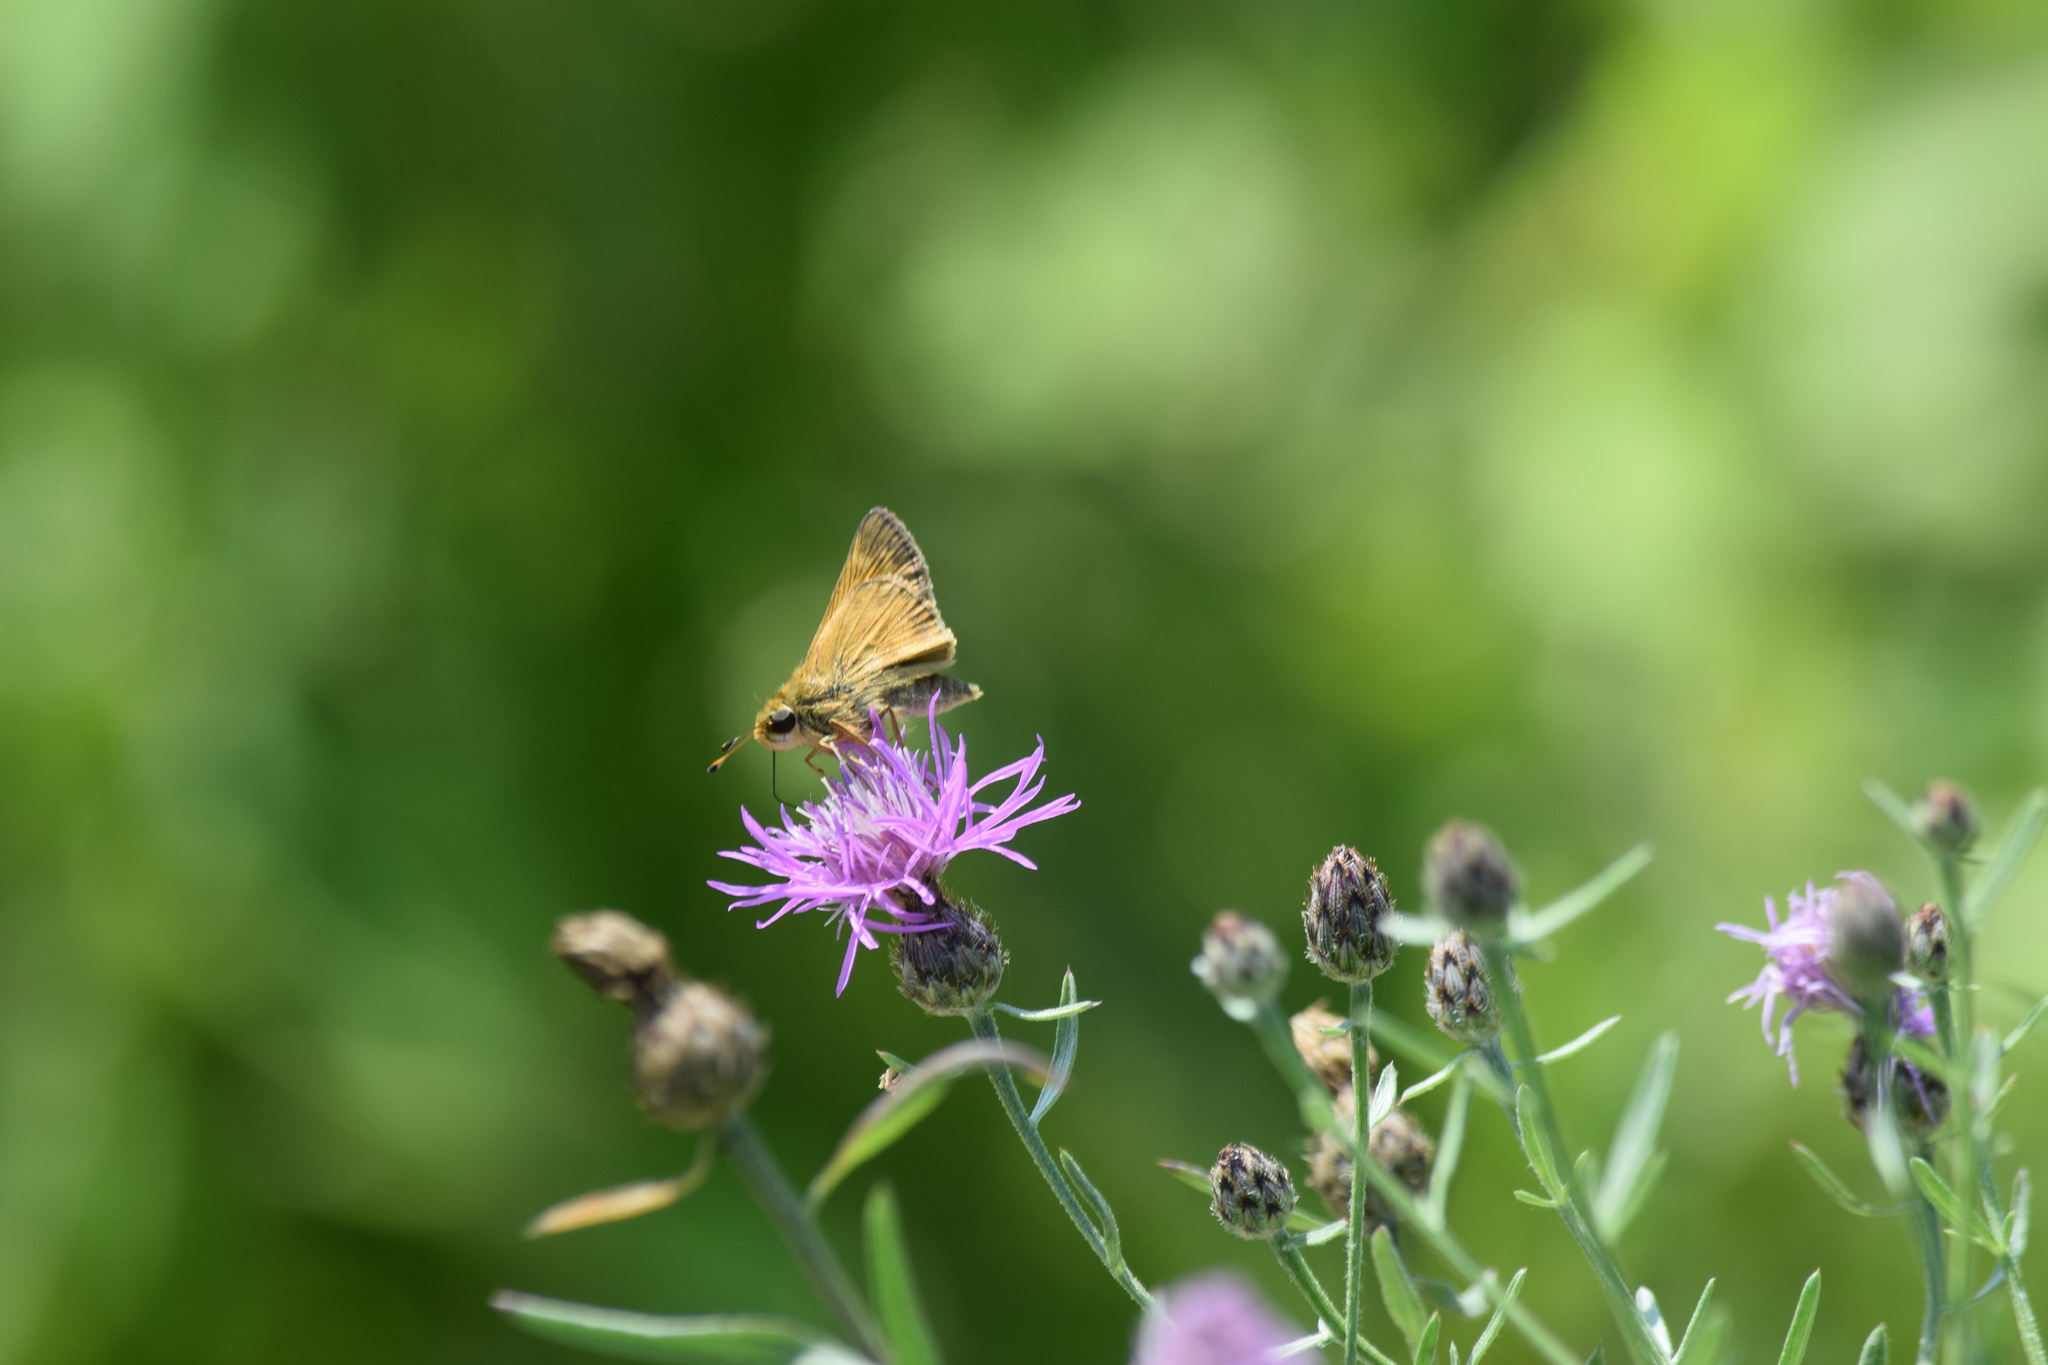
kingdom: Animalia
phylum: Arthropoda
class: Insecta
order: Lepidoptera
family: Hesperiidae
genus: Atalopedes
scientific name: Atalopedes
